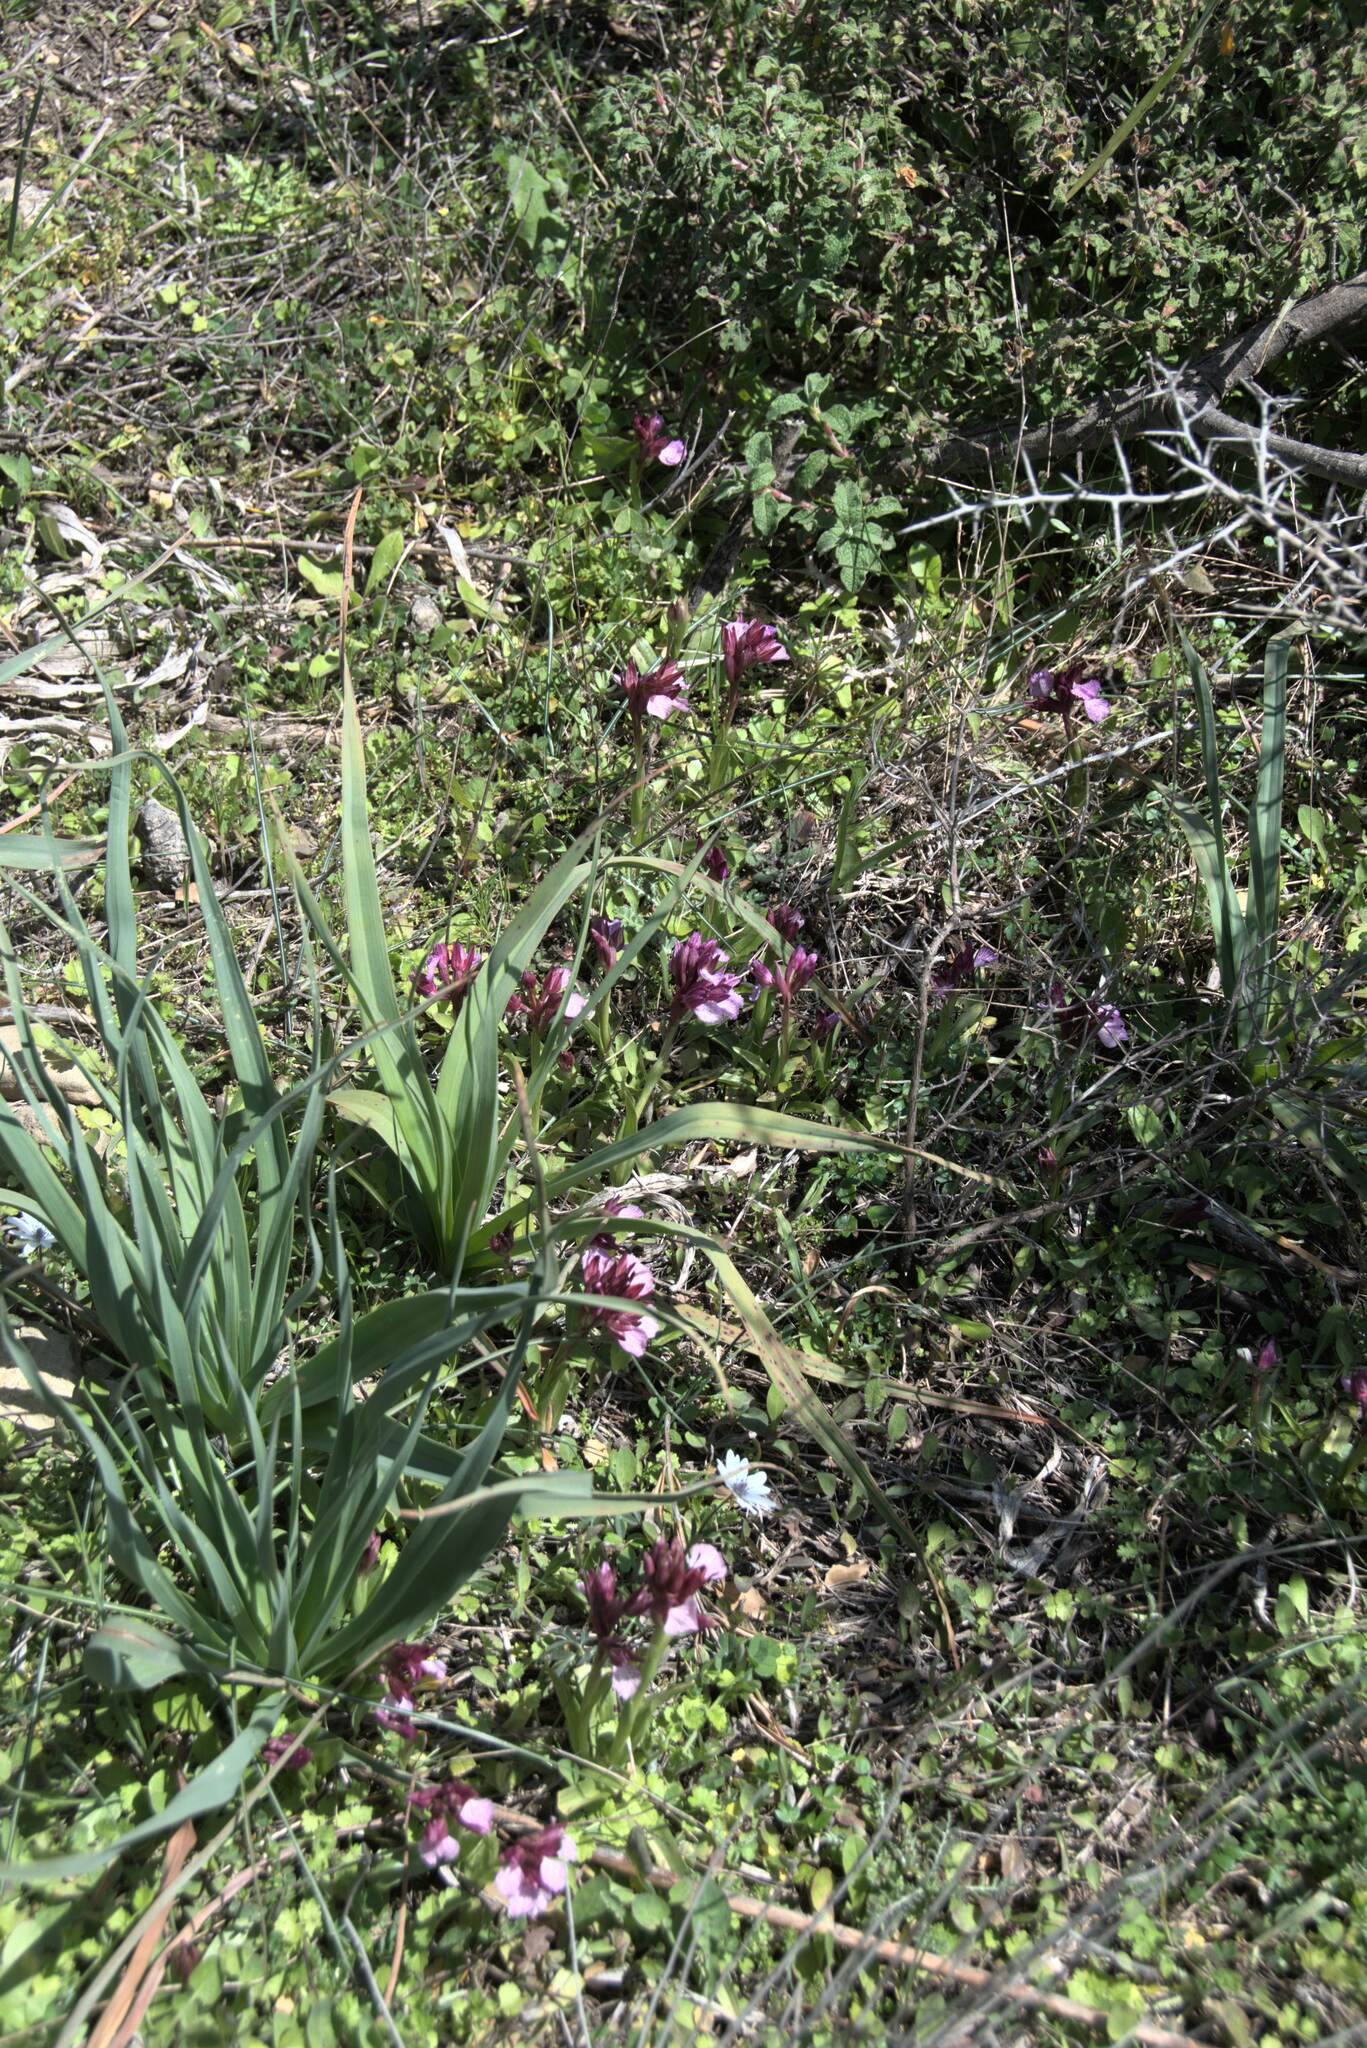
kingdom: Plantae
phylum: Tracheophyta
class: Liliopsida
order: Asparagales
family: Orchidaceae
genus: Anacamptis
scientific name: Anacamptis papilionacea
